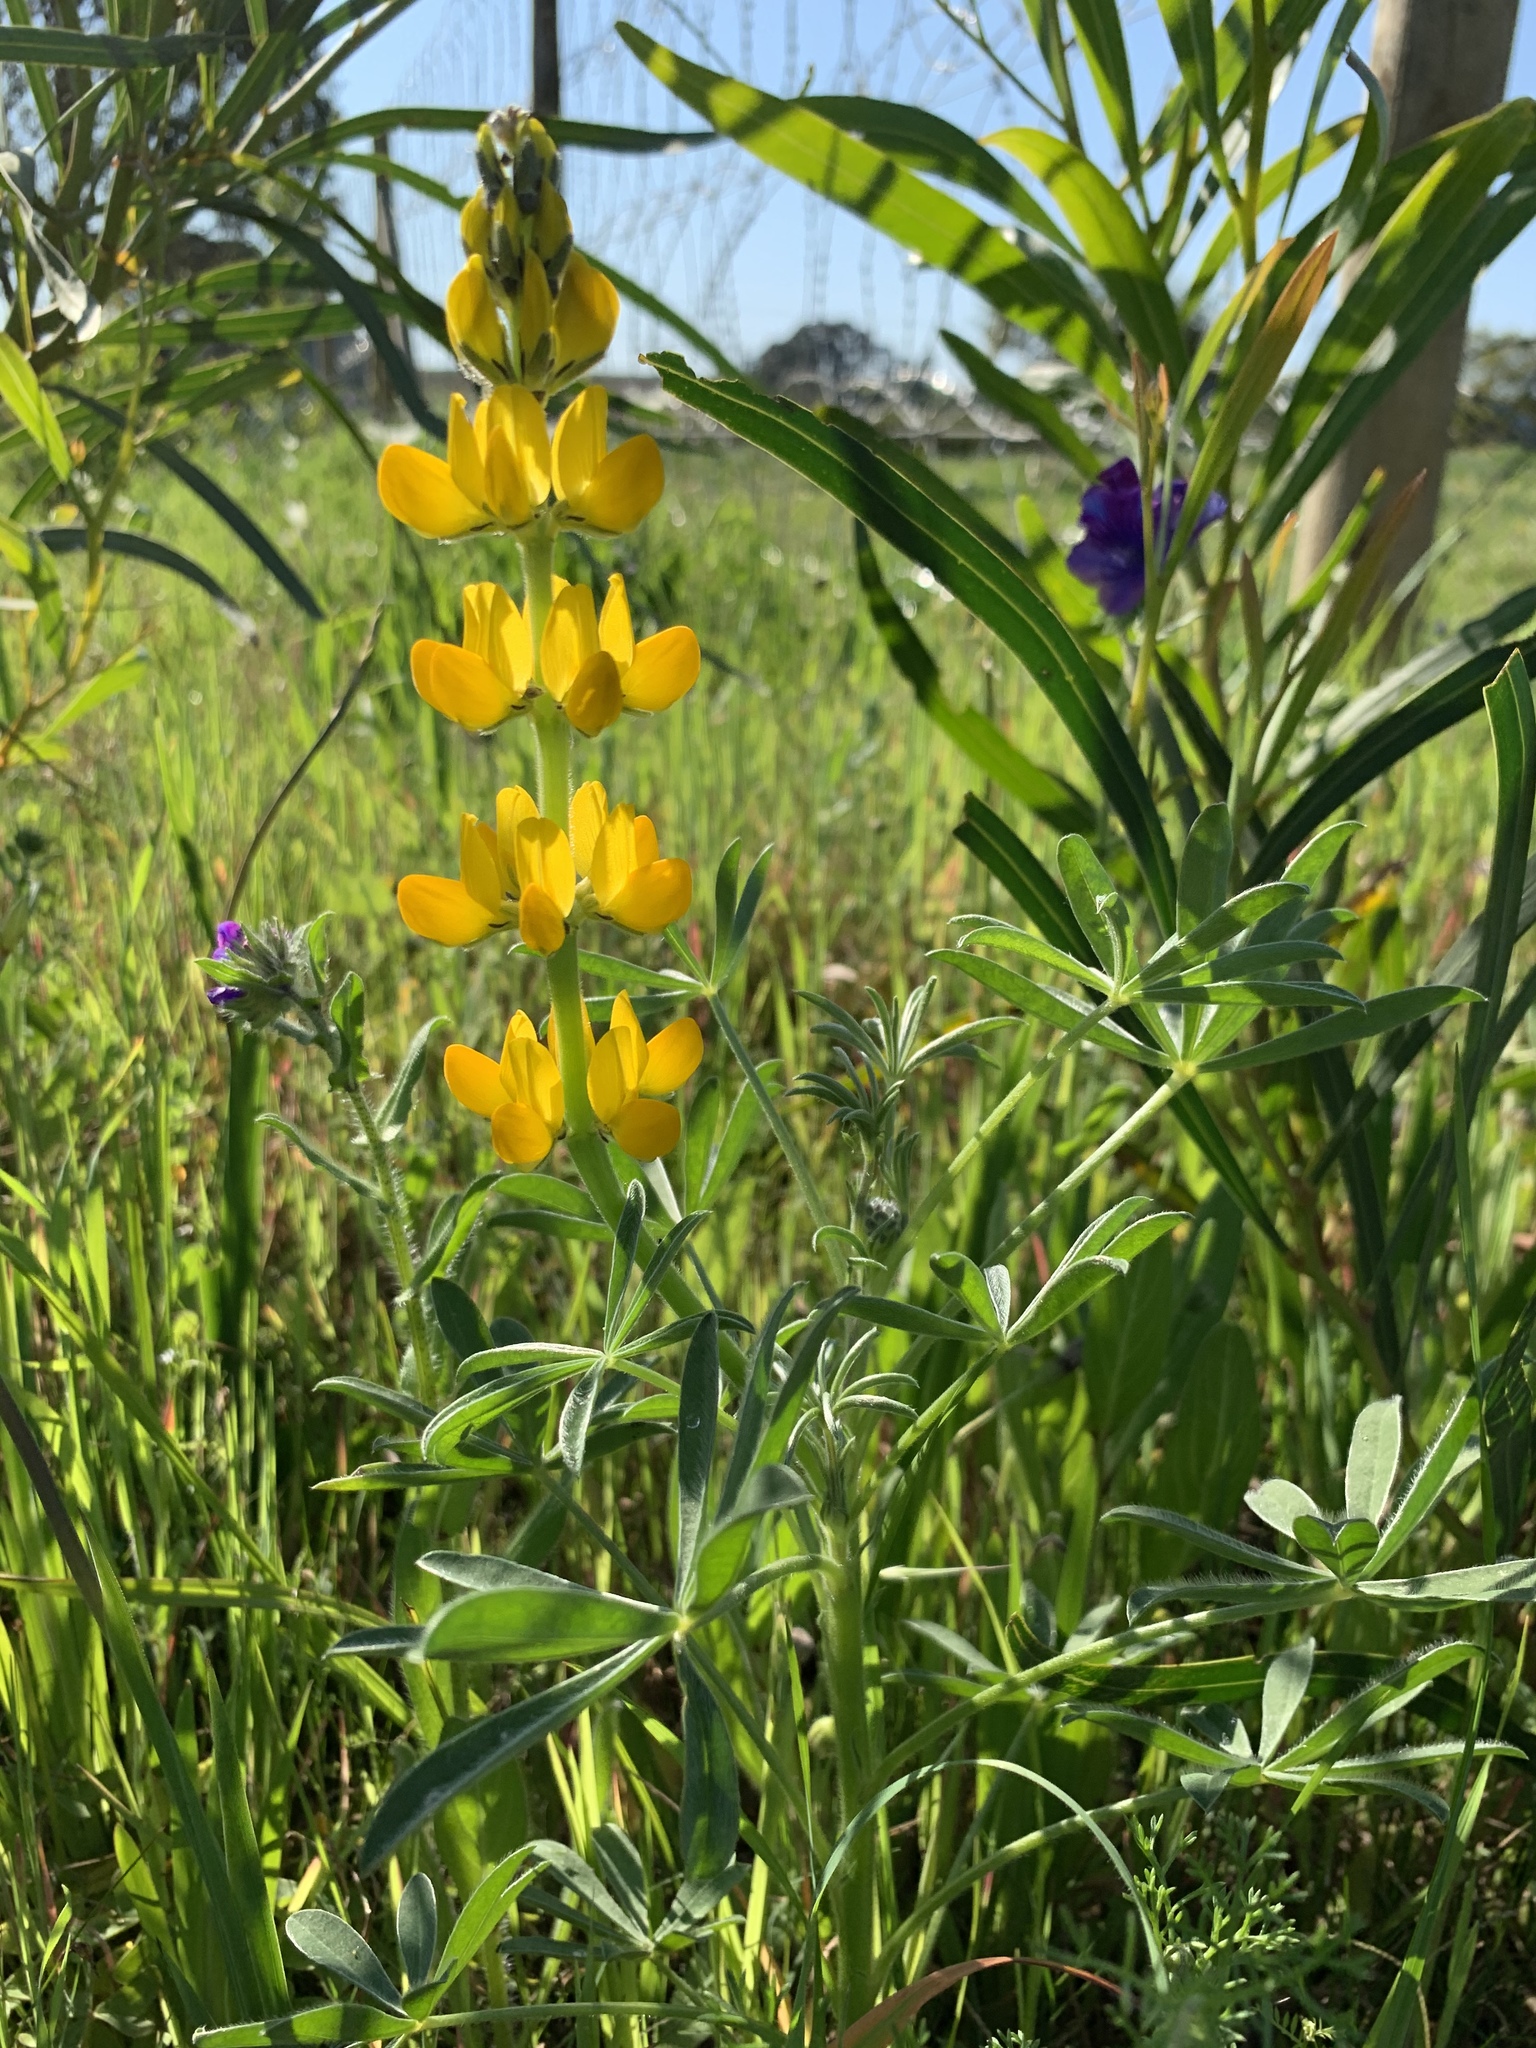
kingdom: Plantae
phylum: Tracheophyta
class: Magnoliopsida
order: Fabales
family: Fabaceae
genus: Lupinus
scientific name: Lupinus luteus
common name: European yellow lupine
